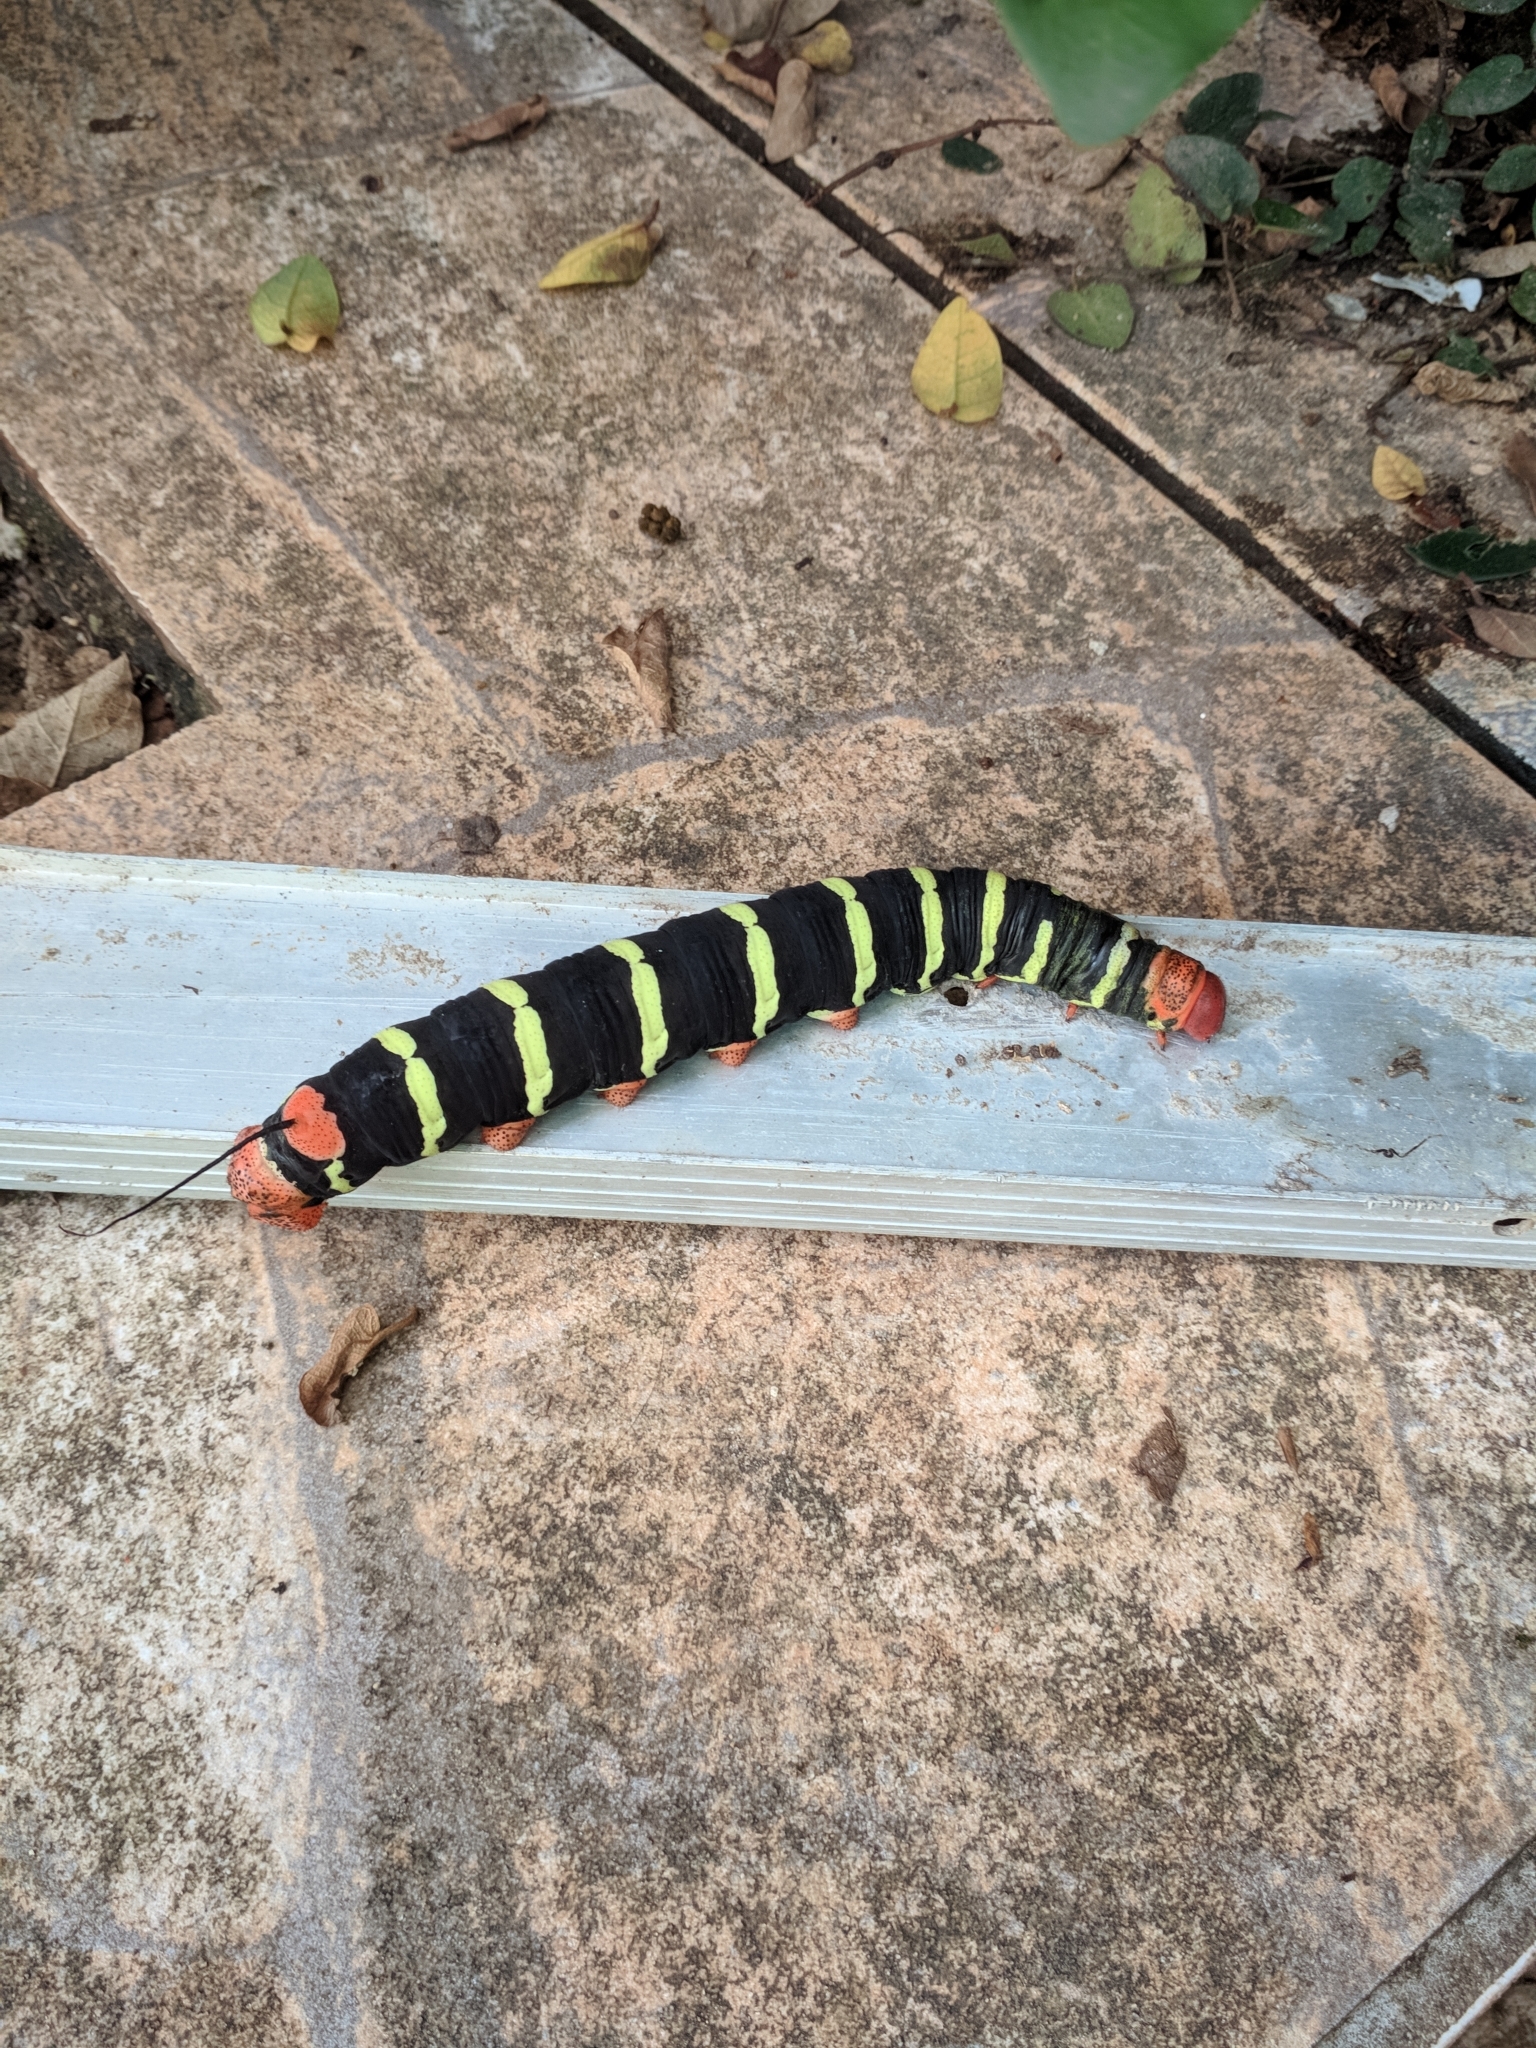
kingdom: Animalia
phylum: Arthropoda
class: Insecta
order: Lepidoptera
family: Sphingidae
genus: Pseudosphinx
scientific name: Pseudosphinx tetrio
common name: Tetrio sphinx
